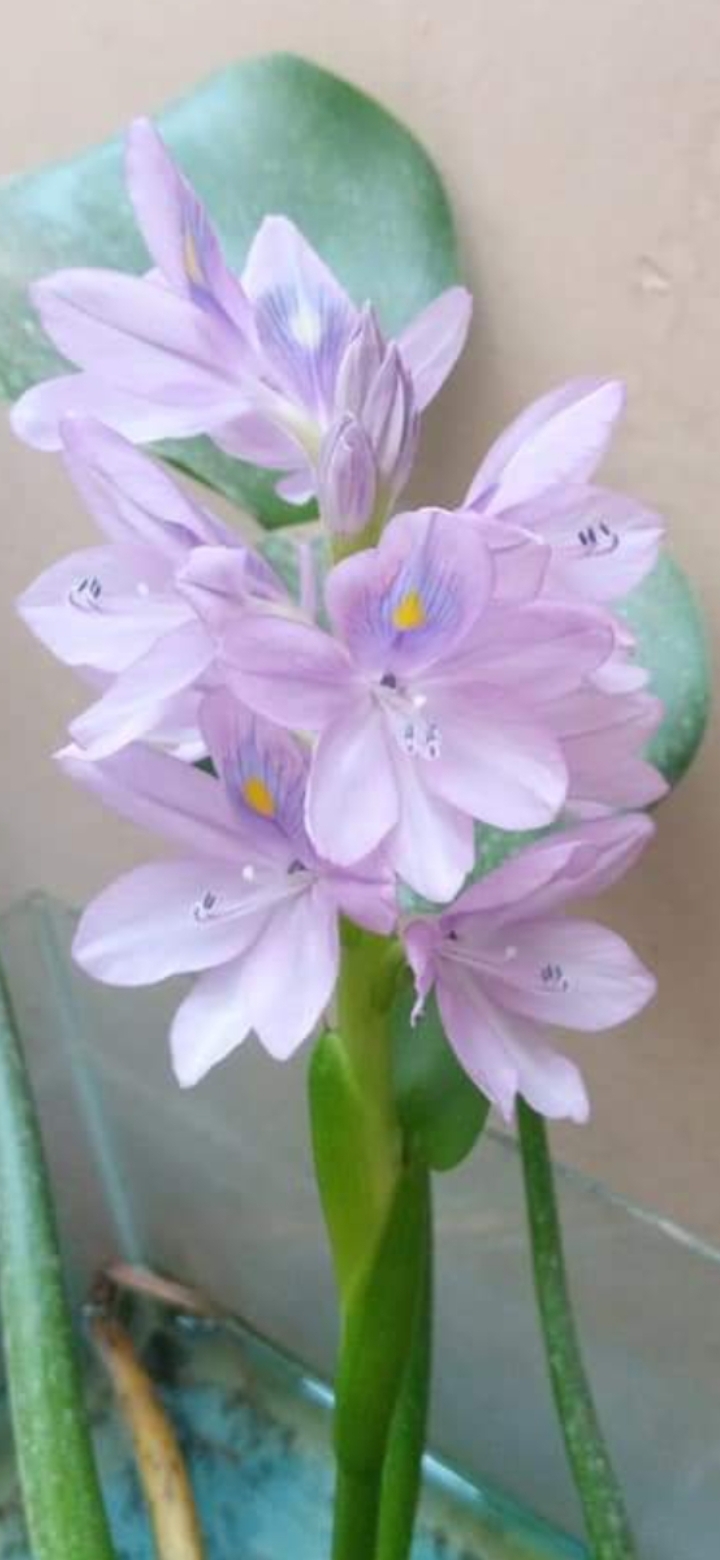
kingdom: Plantae
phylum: Tracheophyta
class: Liliopsida
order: Commelinales
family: Pontederiaceae
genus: Pontederia
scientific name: Pontederia crassipes
